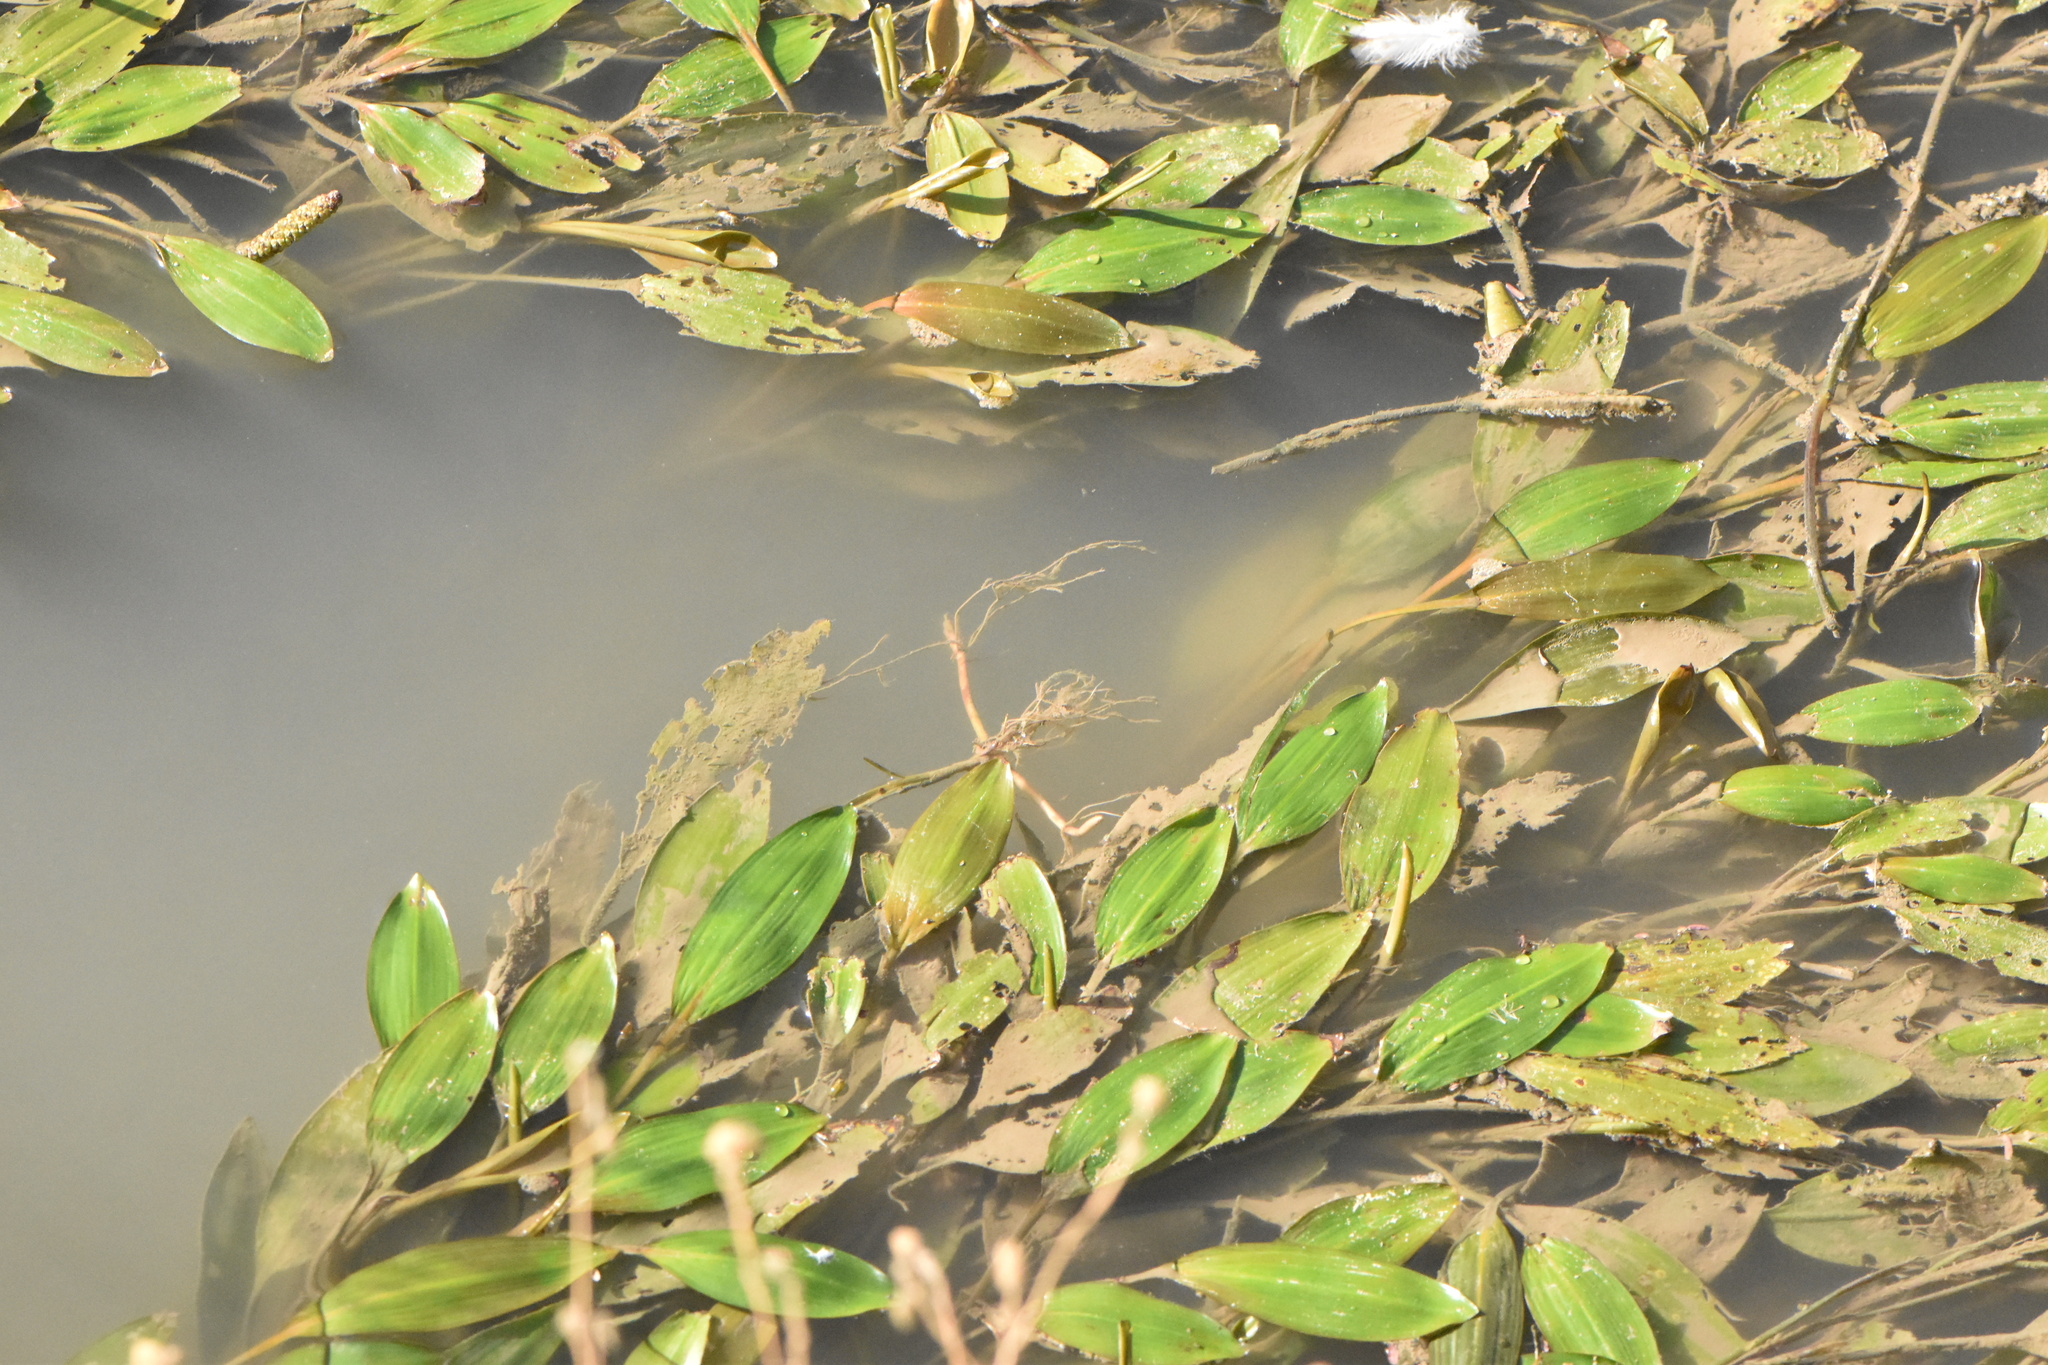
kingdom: Plantae
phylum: Tracheophyta
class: Liliopsida
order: Alismatales
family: Potamogetonaceae
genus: Potamogeton
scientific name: Potamogeton nodosus
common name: Loddon pondweed
